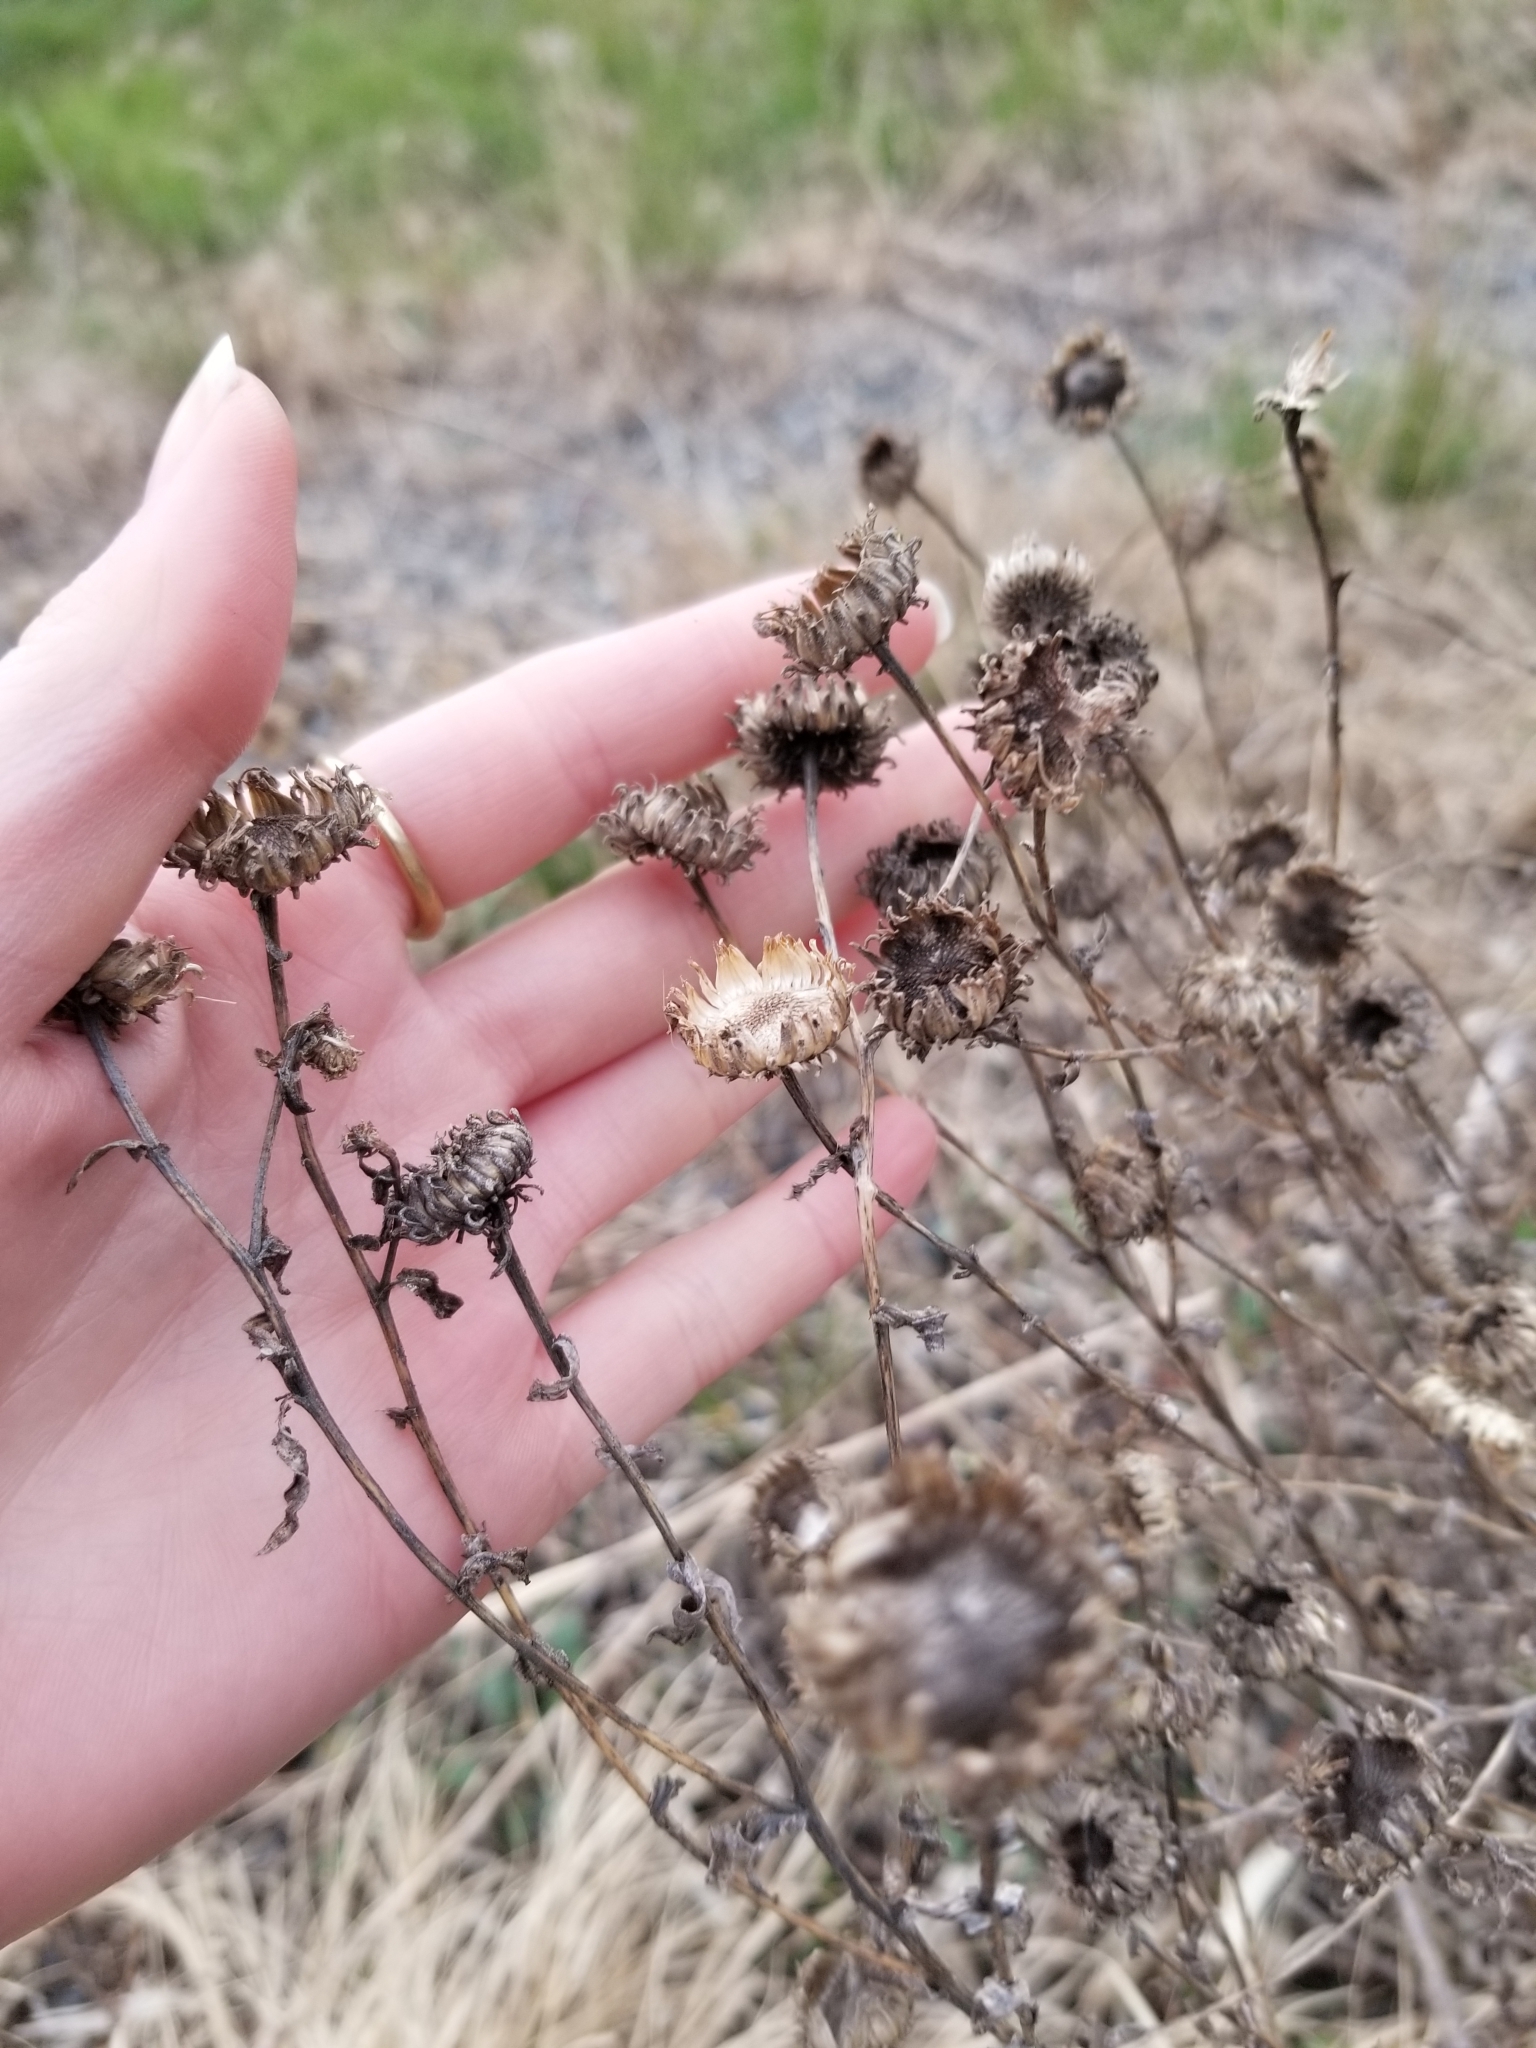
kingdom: Plantae
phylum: Tracheophyta
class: Magnoliopsida
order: Asterales
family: Asteraceae
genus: Grindelia
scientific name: Grindelia squarrosa
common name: Curly-cup gumweed
